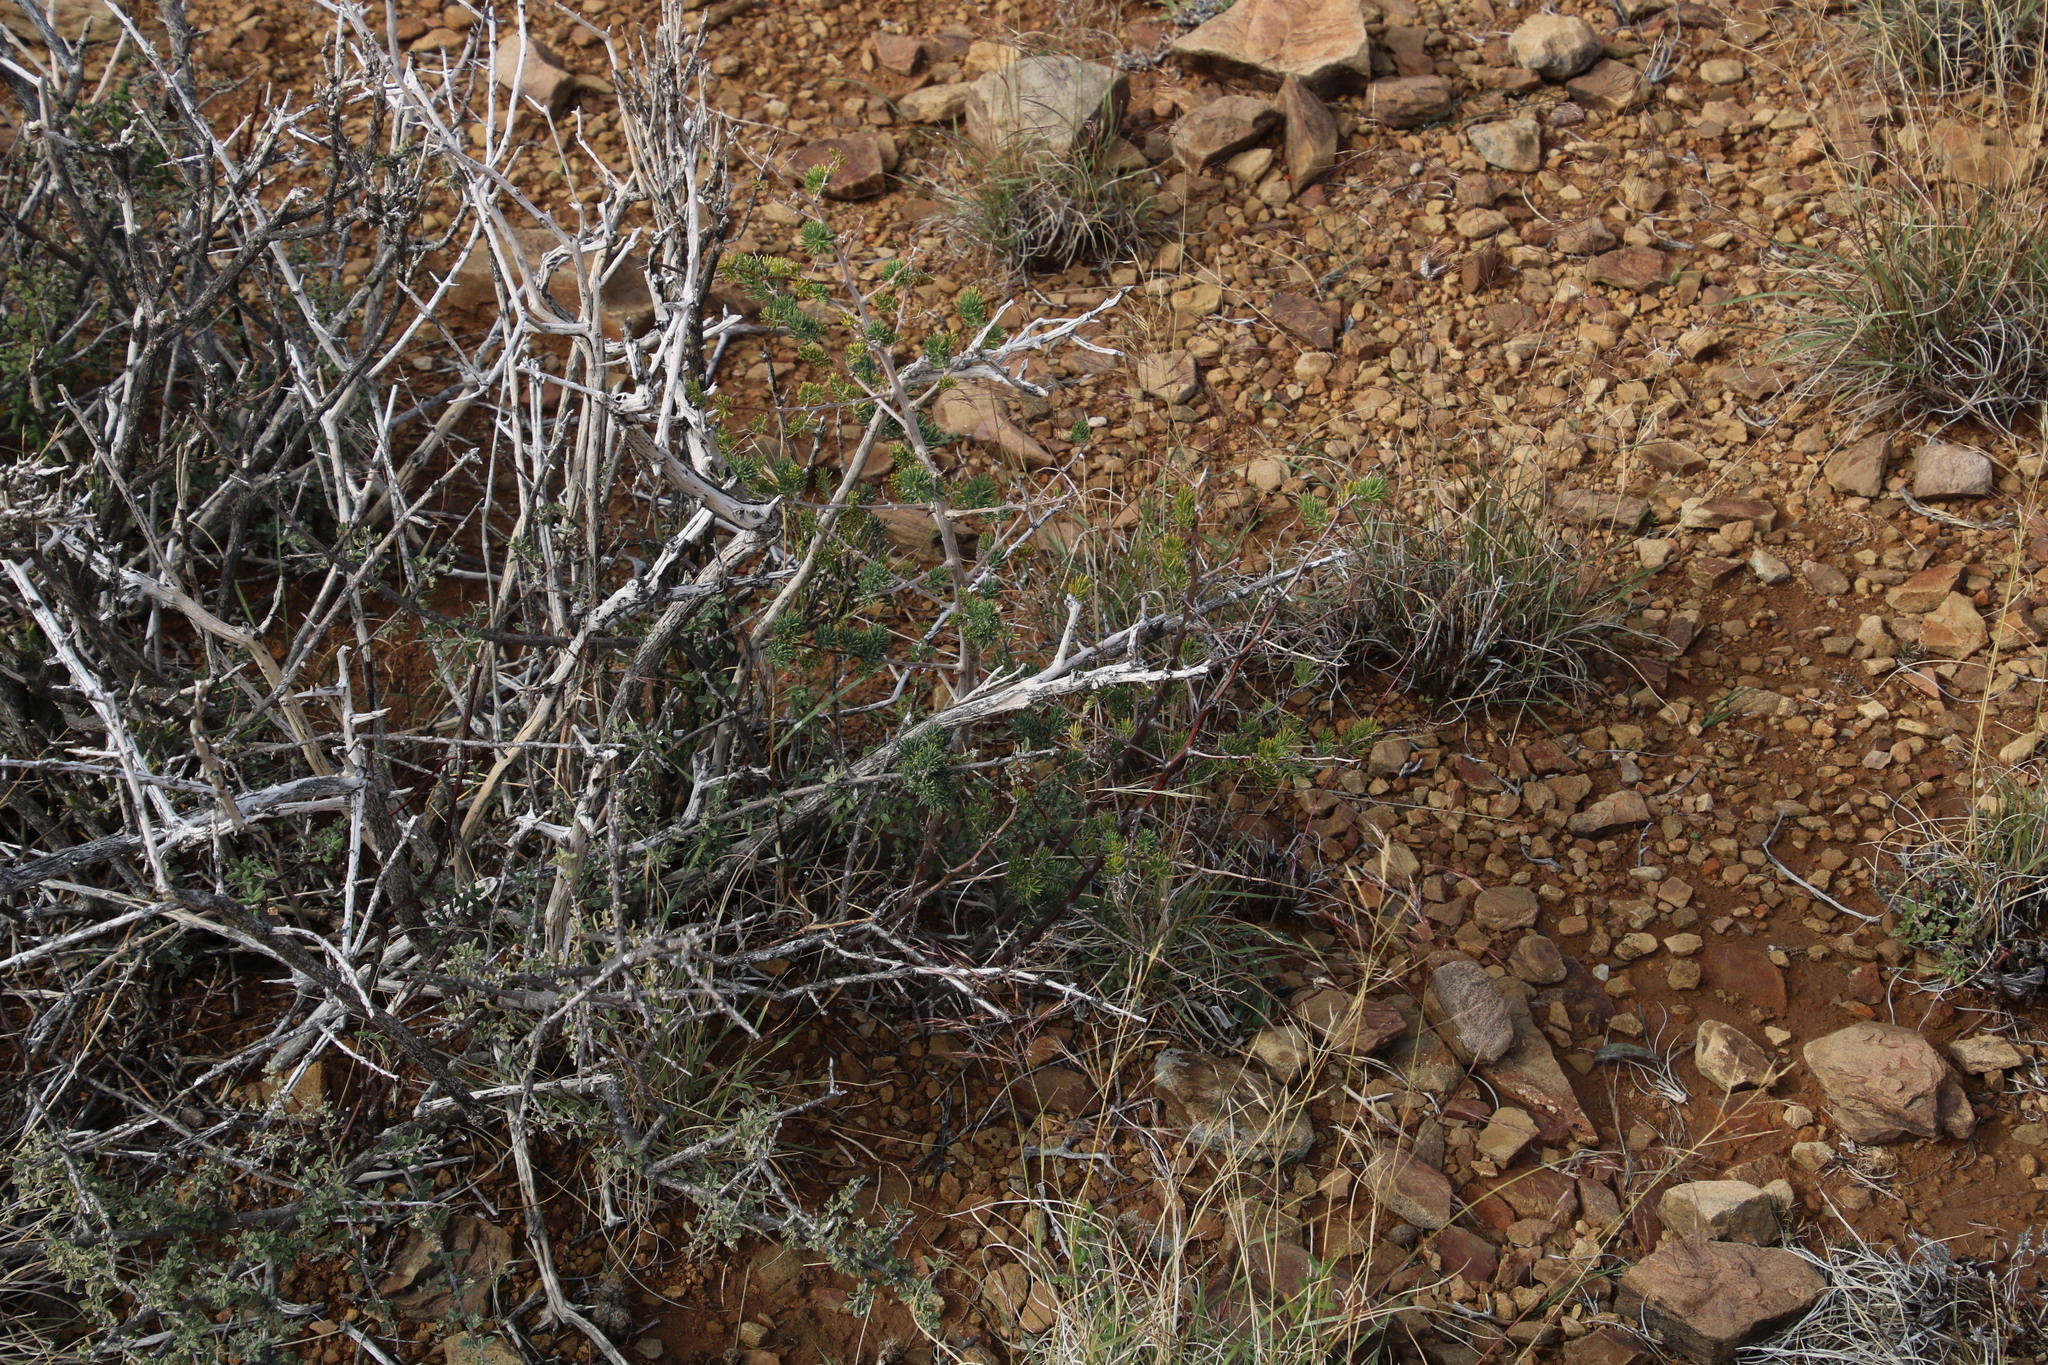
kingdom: Plantae
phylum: Tracheophyta
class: Liliopsida
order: Asparagales
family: Asparagaceae
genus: Asparagus
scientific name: Asparagus mucronatus
